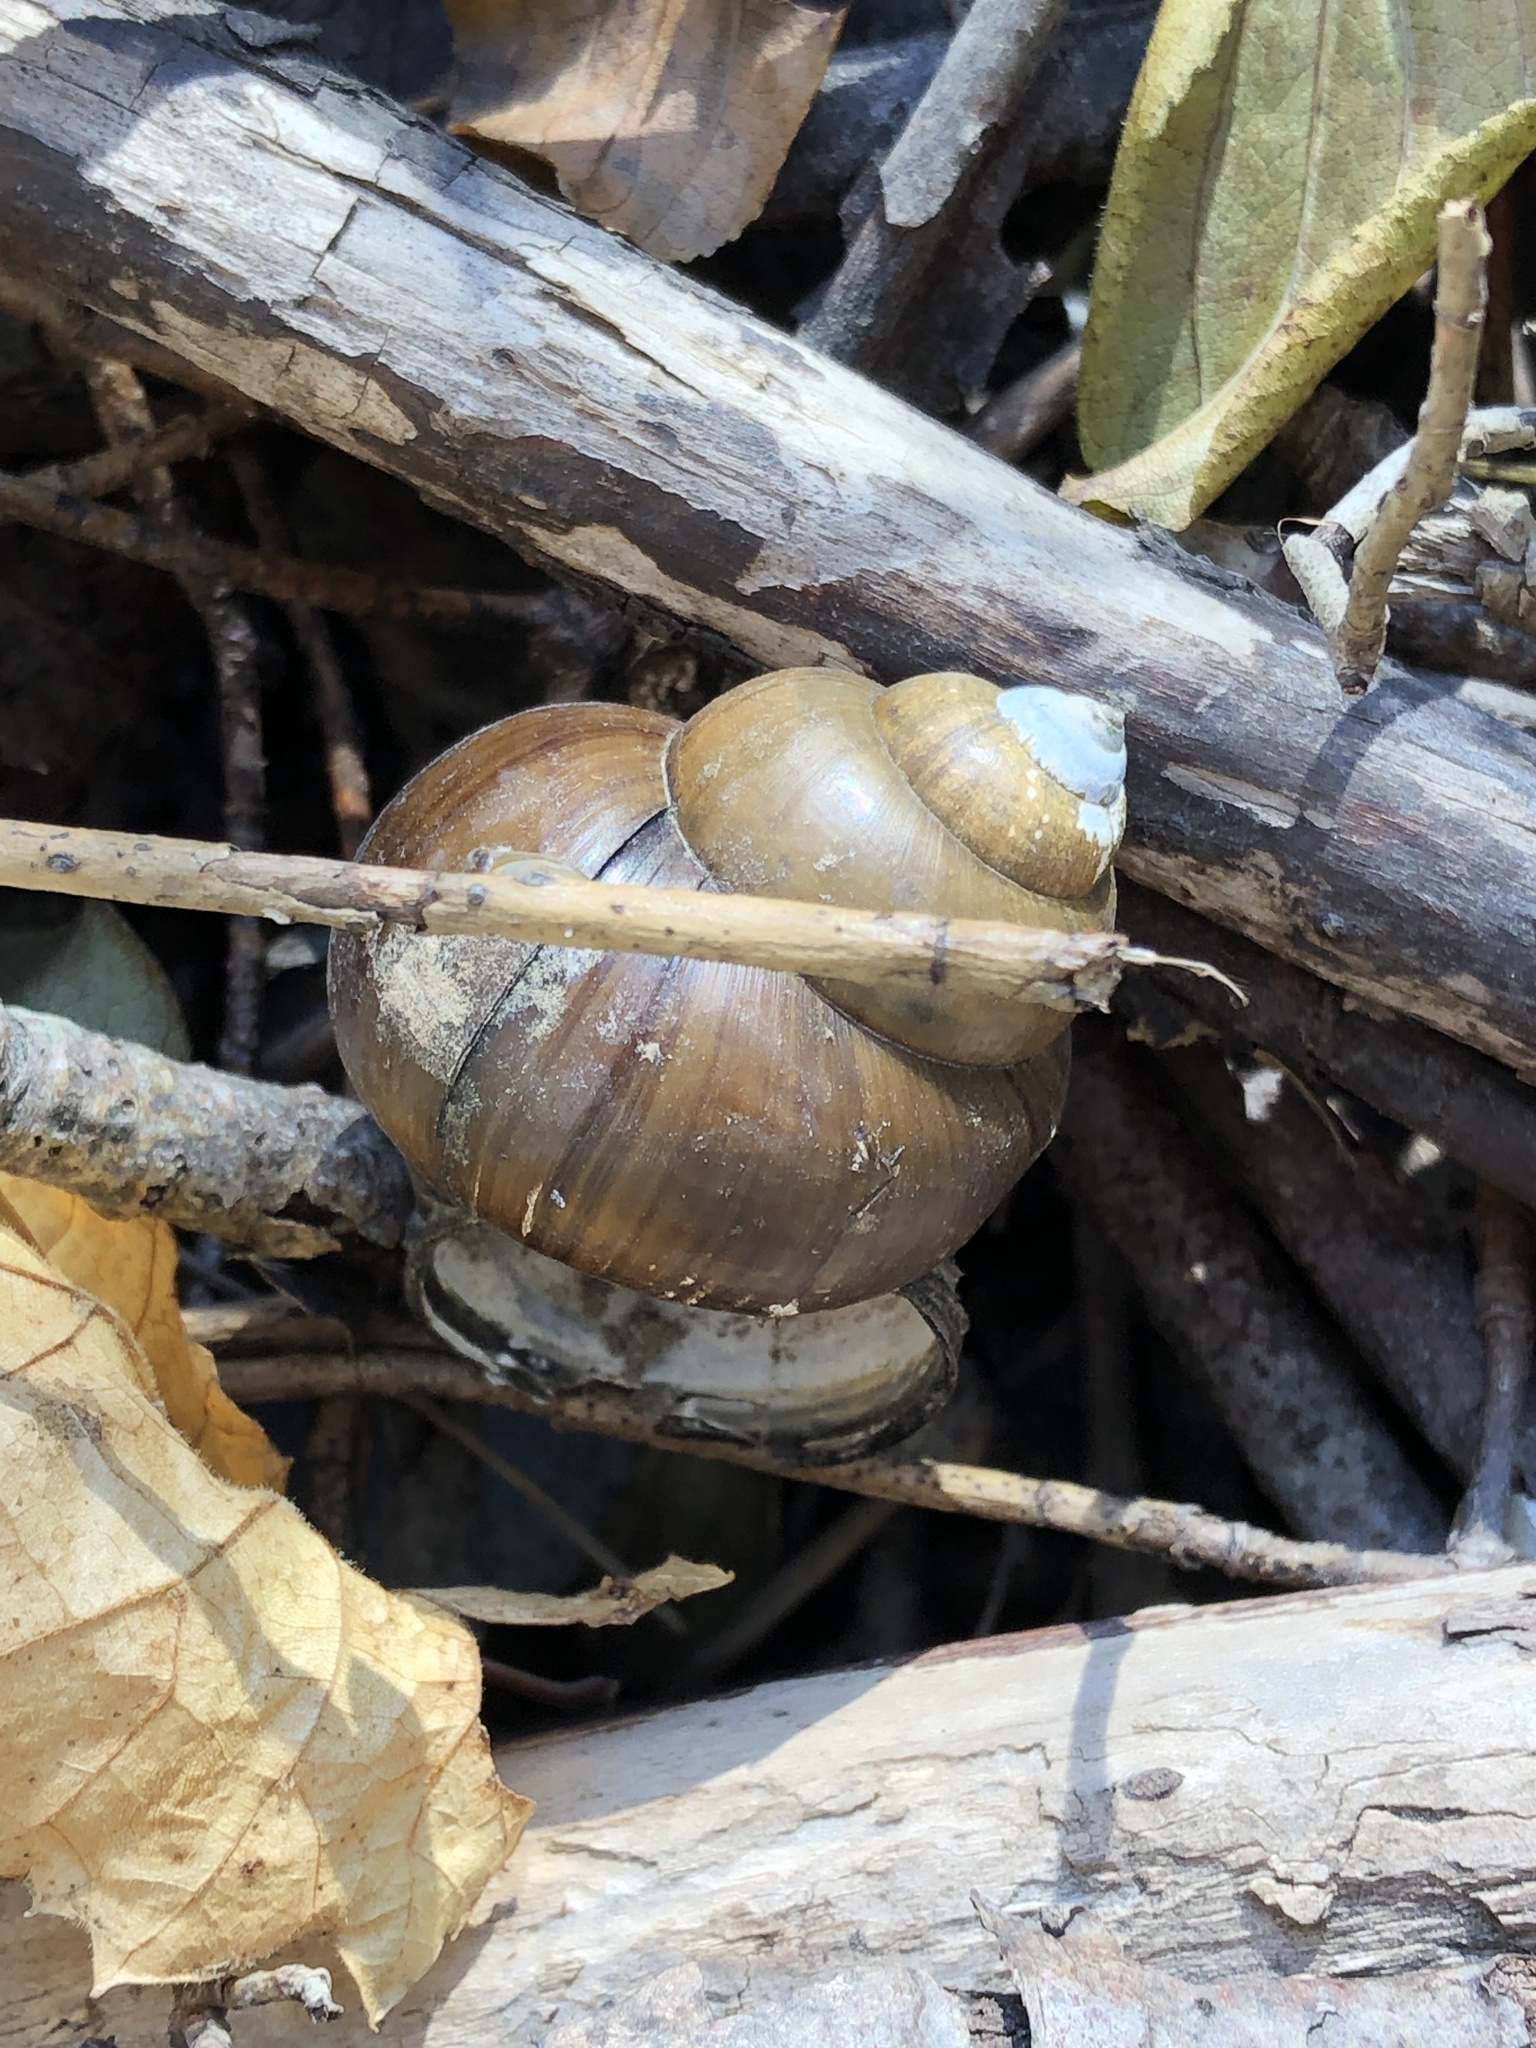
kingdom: Animalia
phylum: Mollusca
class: Gastropoda
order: Architaenioglossa
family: Viviparidae
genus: Cipangopaludina
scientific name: Cipangopaludina chinensis
